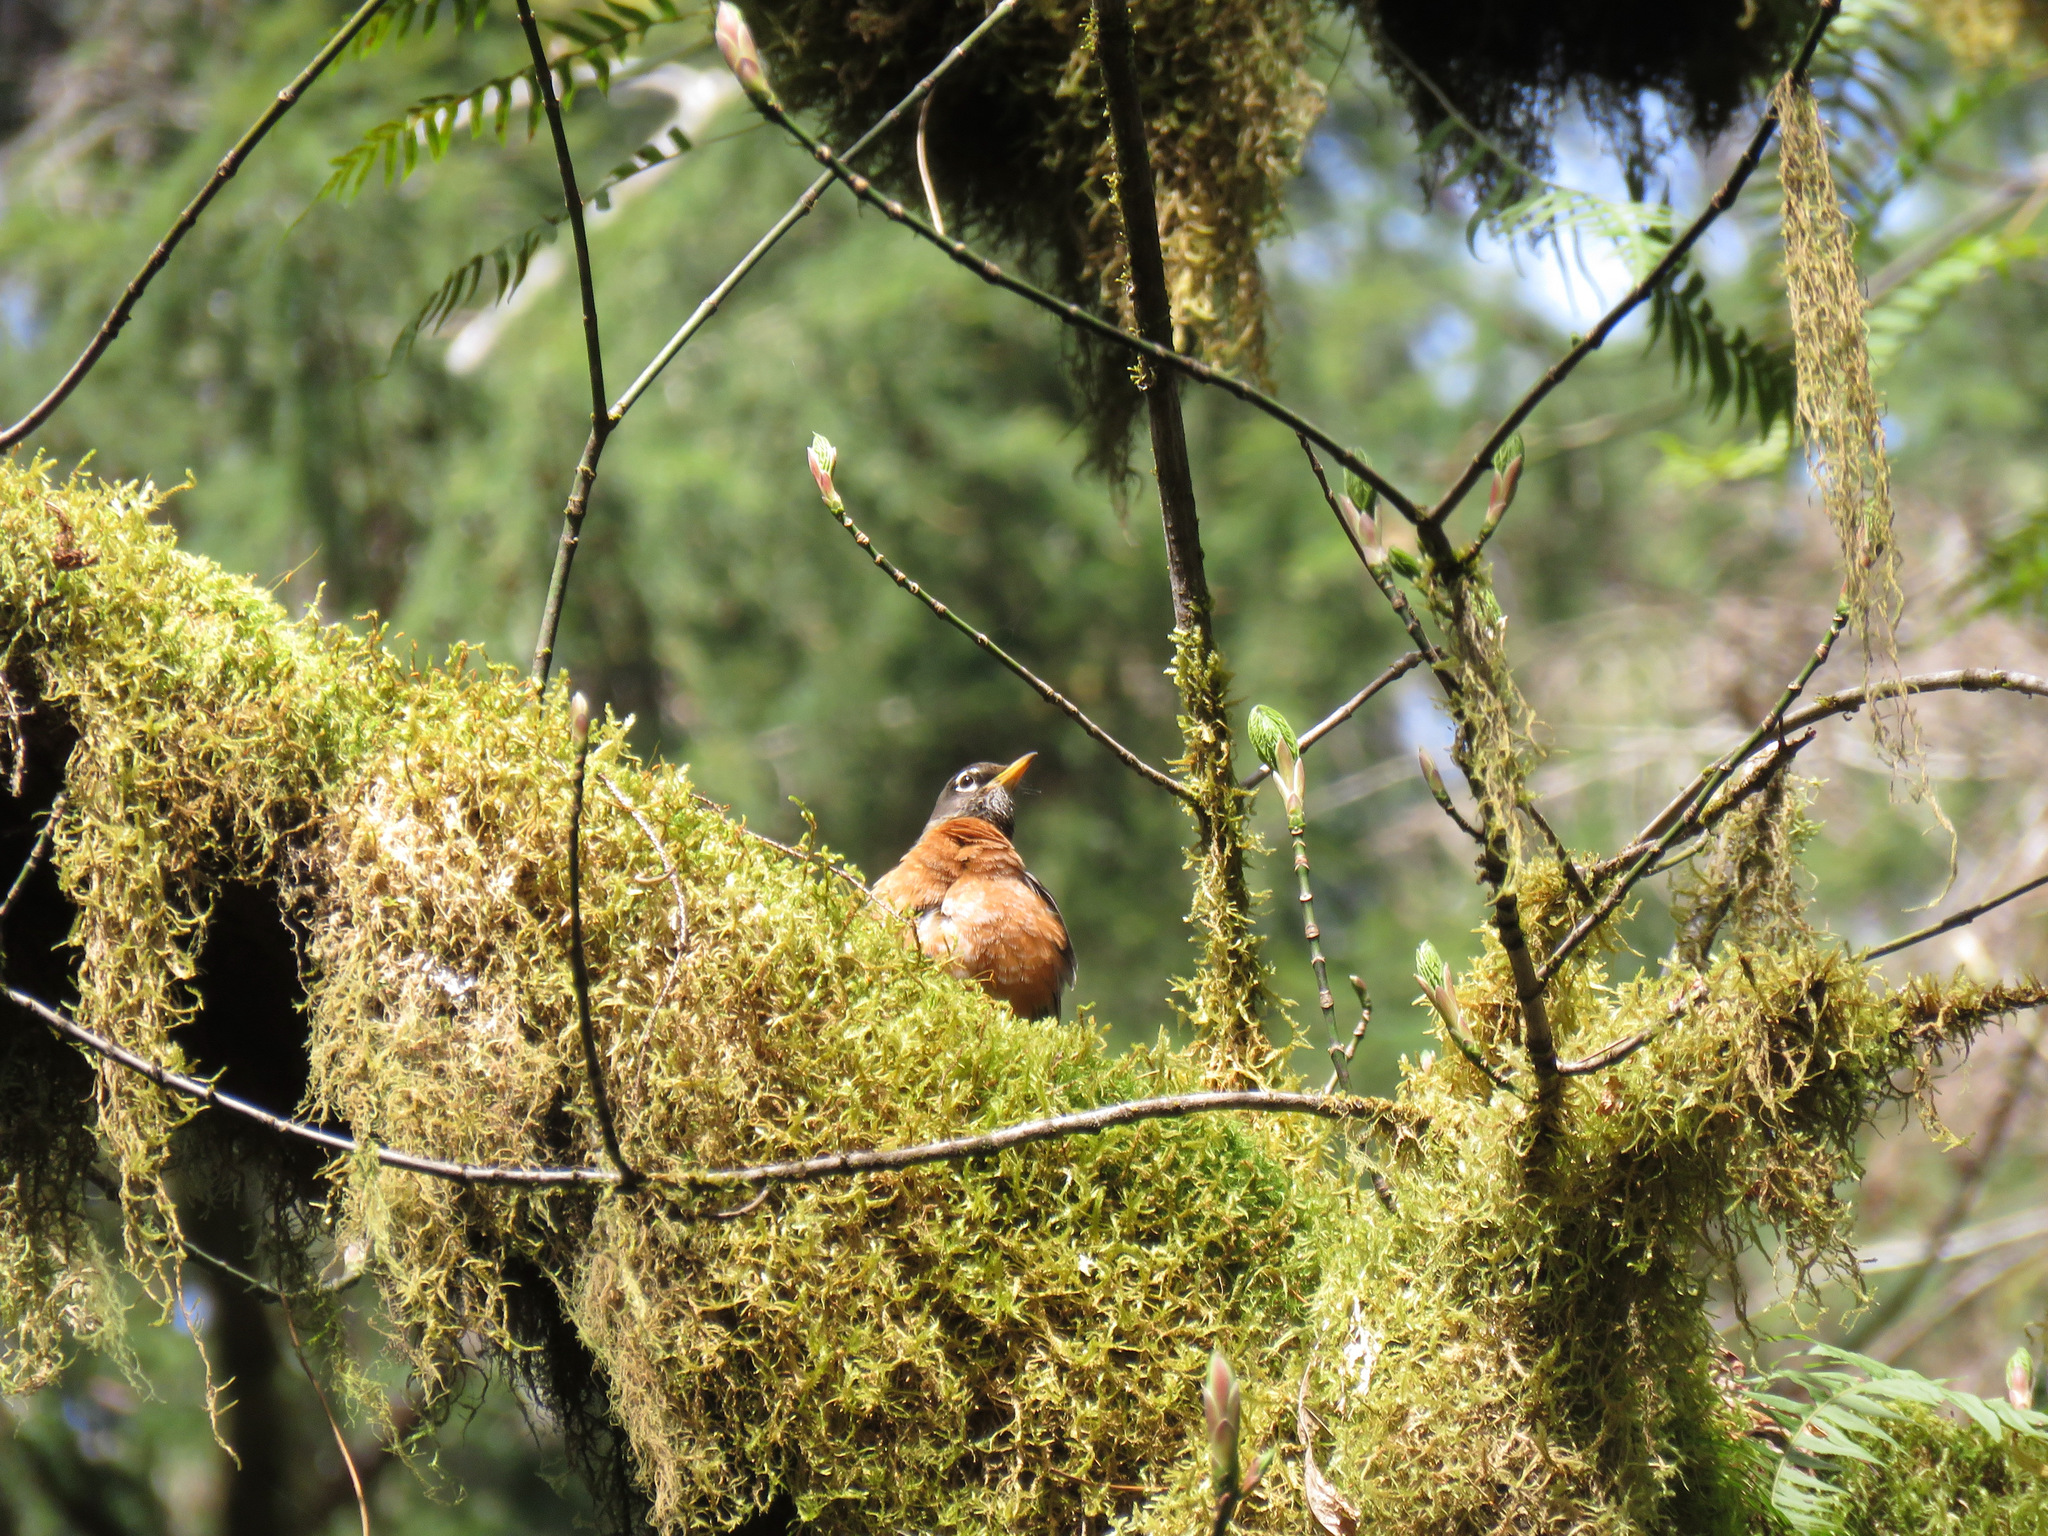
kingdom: Animalia
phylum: Chordata
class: Aves
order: Passeriformes
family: Turdidae
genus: Turdus
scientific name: Turdus migratorius
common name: American robin
